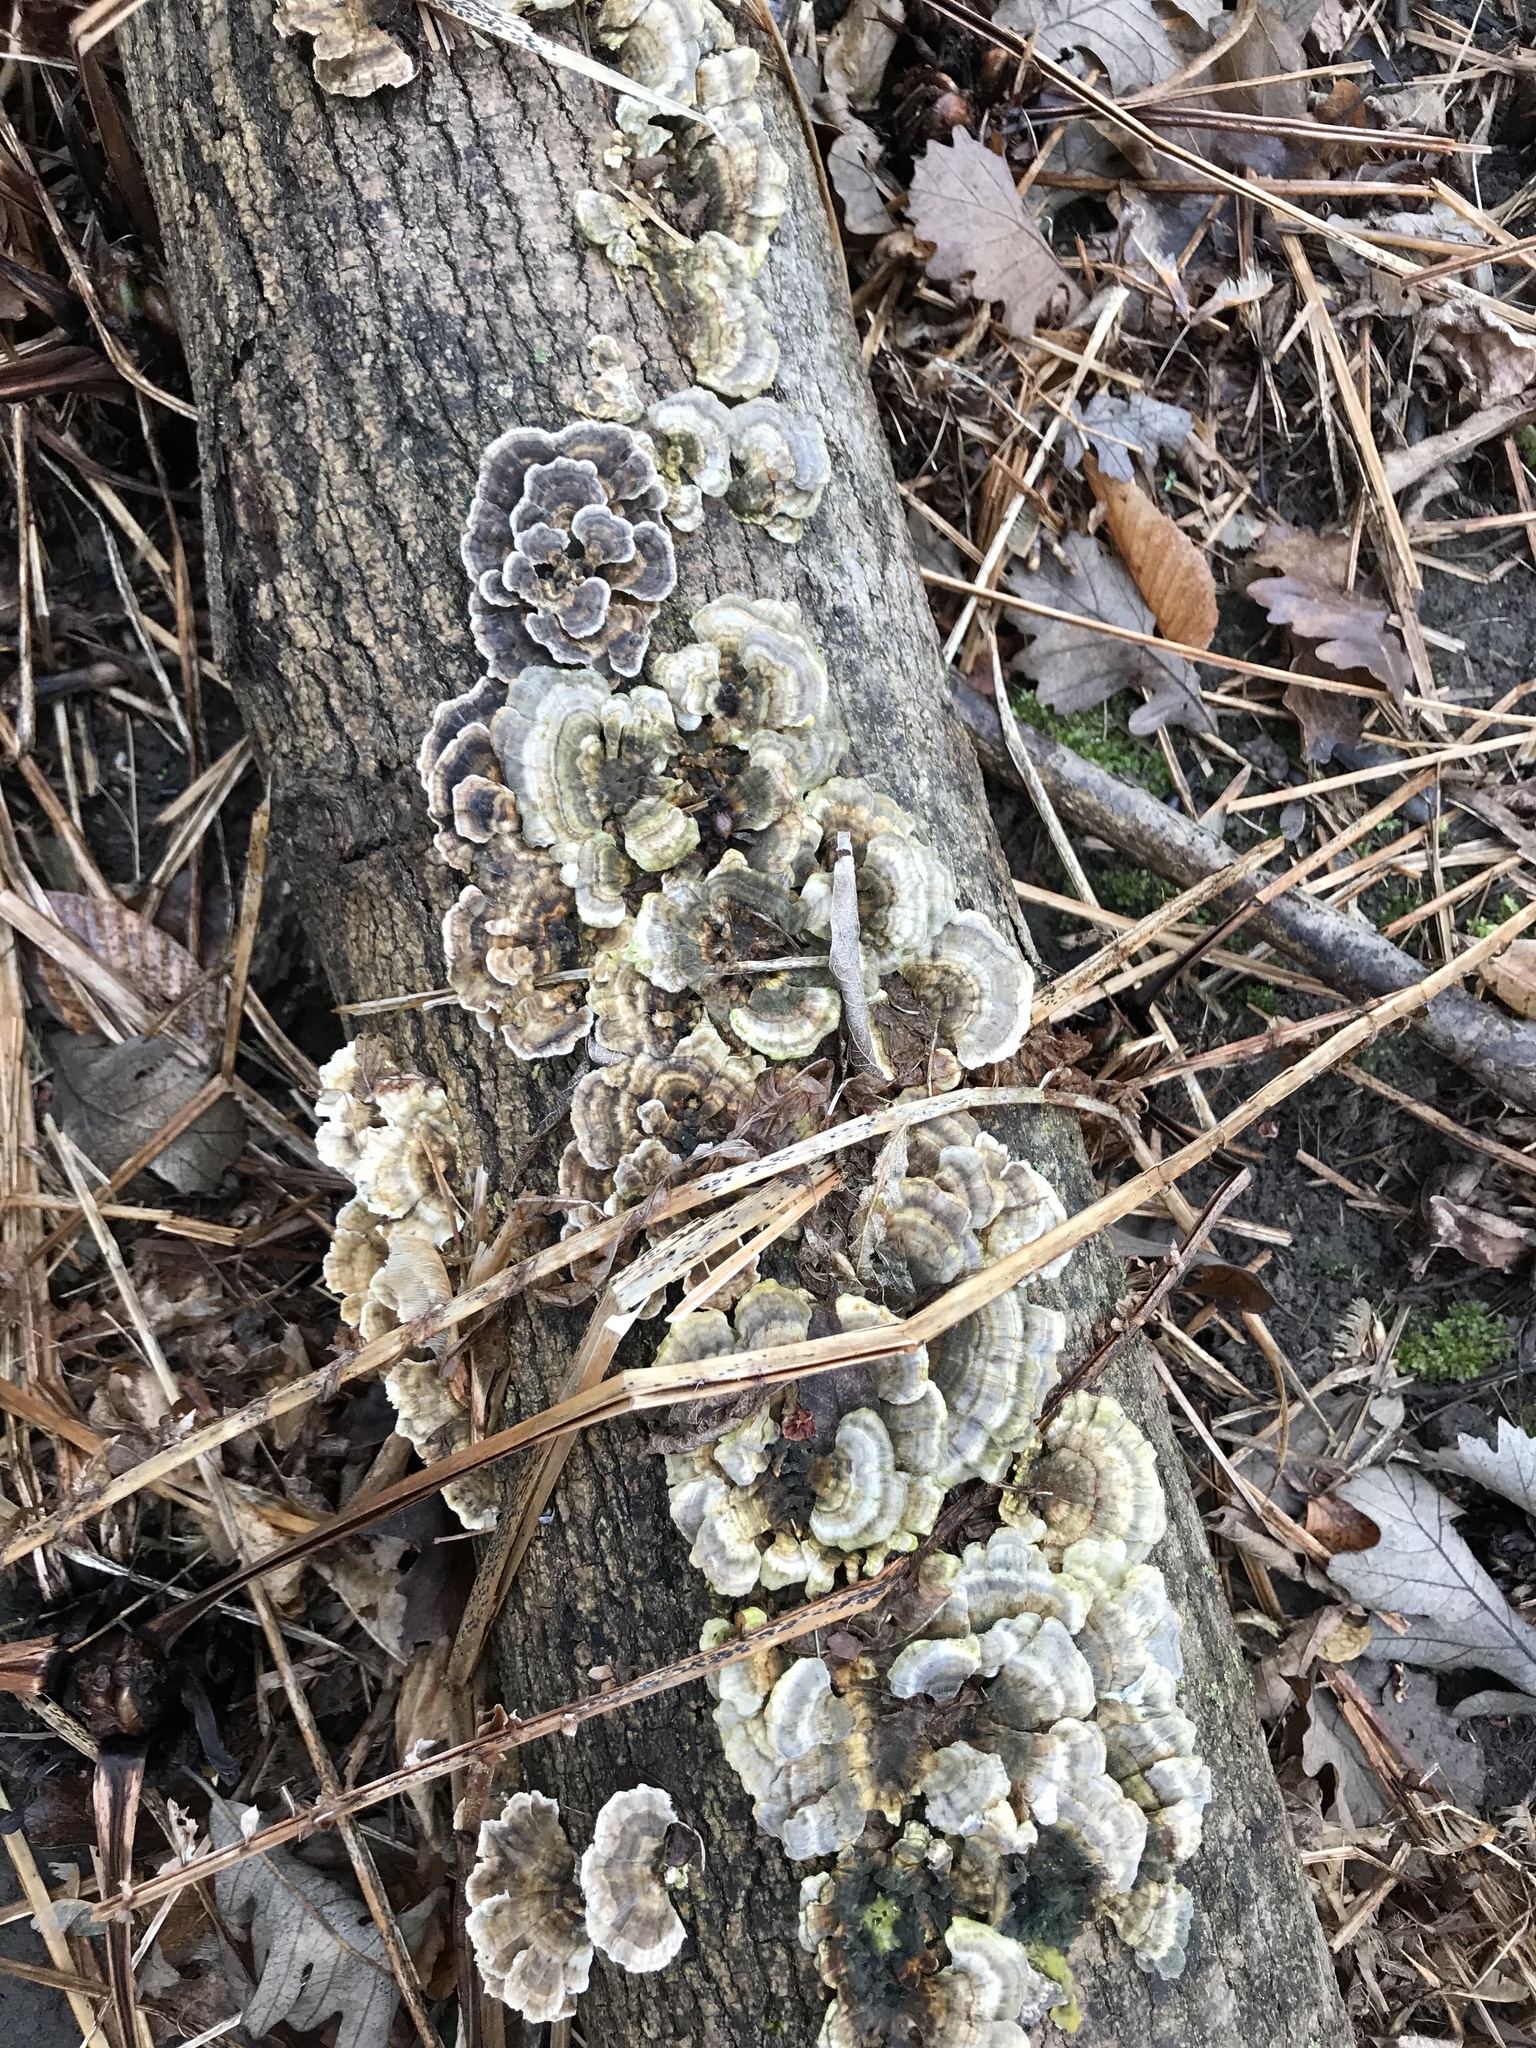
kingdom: Fungi
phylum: Basidiomycota
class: Agaricomycetes
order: Polyporales
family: Polyporaceae
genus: Trametes
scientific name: Trametes versicolor
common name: Turkeytail
